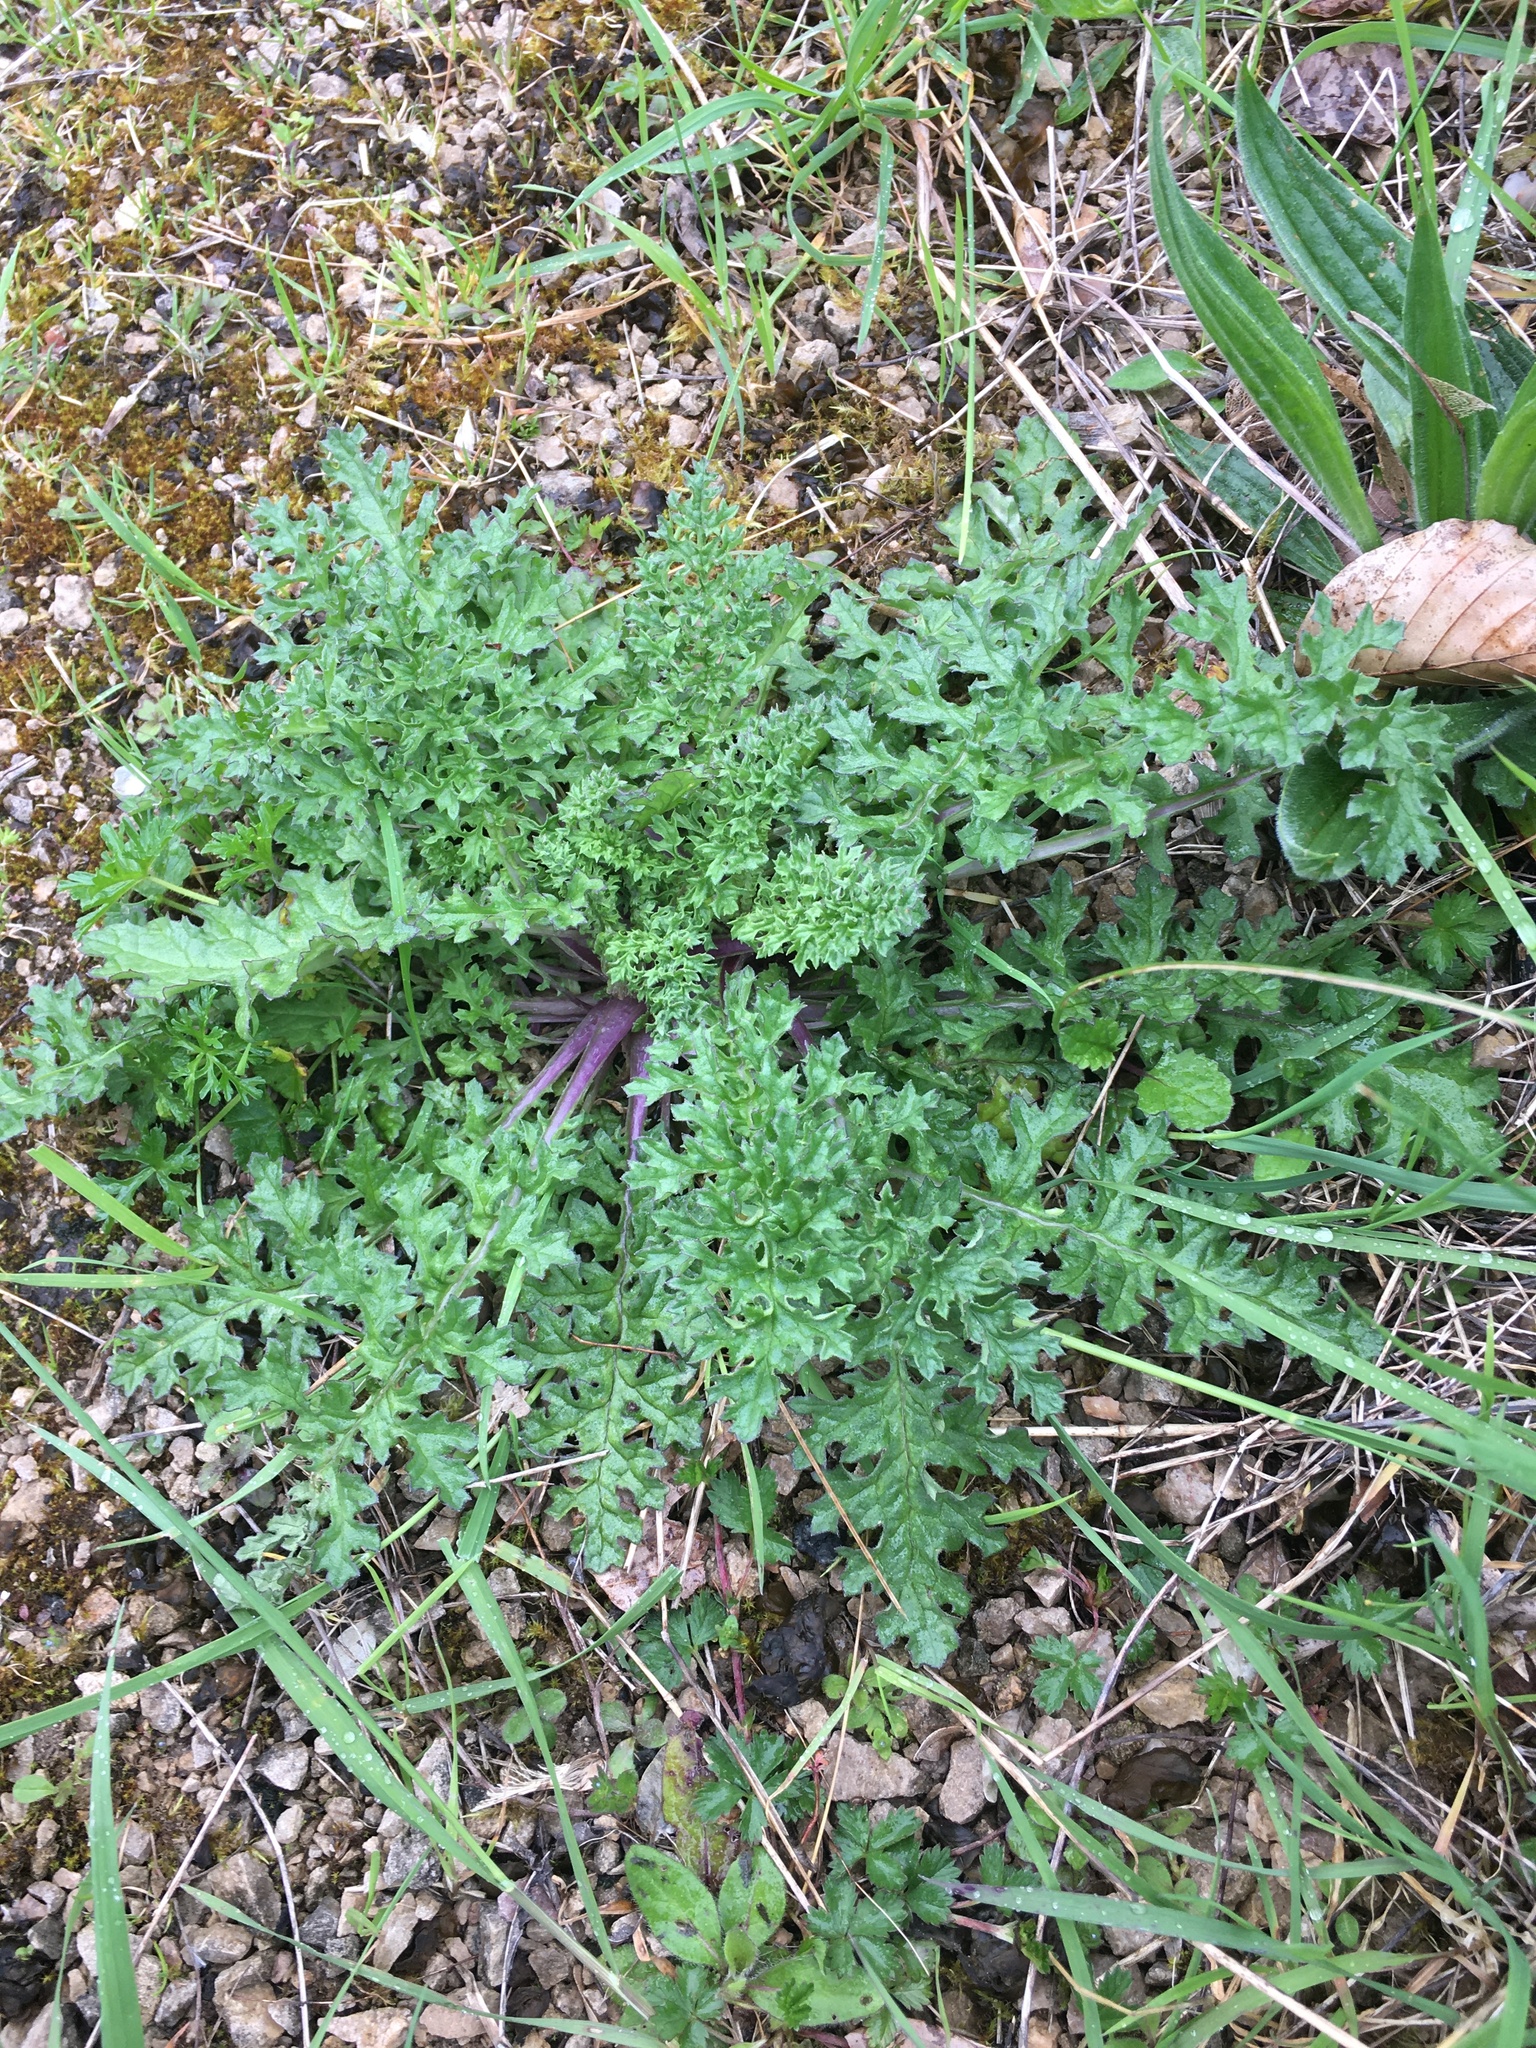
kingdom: Plantae
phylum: Tracheophyta
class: Magnoliopsida
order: Asterales
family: Asteraceae
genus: Jacobaea
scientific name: Jacobaea vulgaris
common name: Stinking willie
